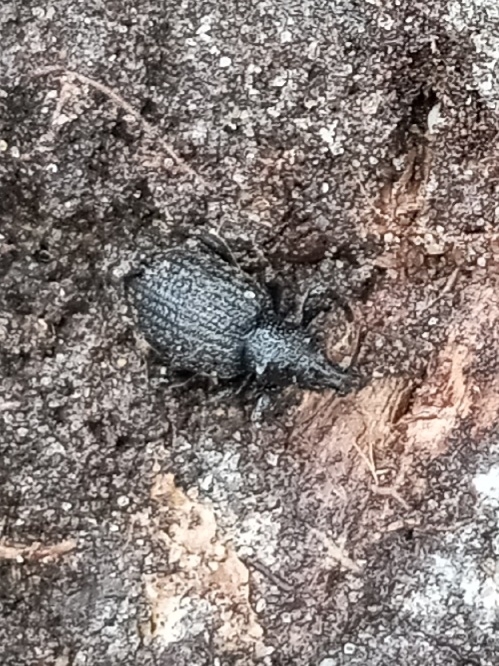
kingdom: Animalia
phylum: Arthropoda
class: Insecta
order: Coleoptera
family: Curculionidae
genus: Otiorhynchus
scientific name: Otiorhynchus rugosostriatus
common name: Weevil
